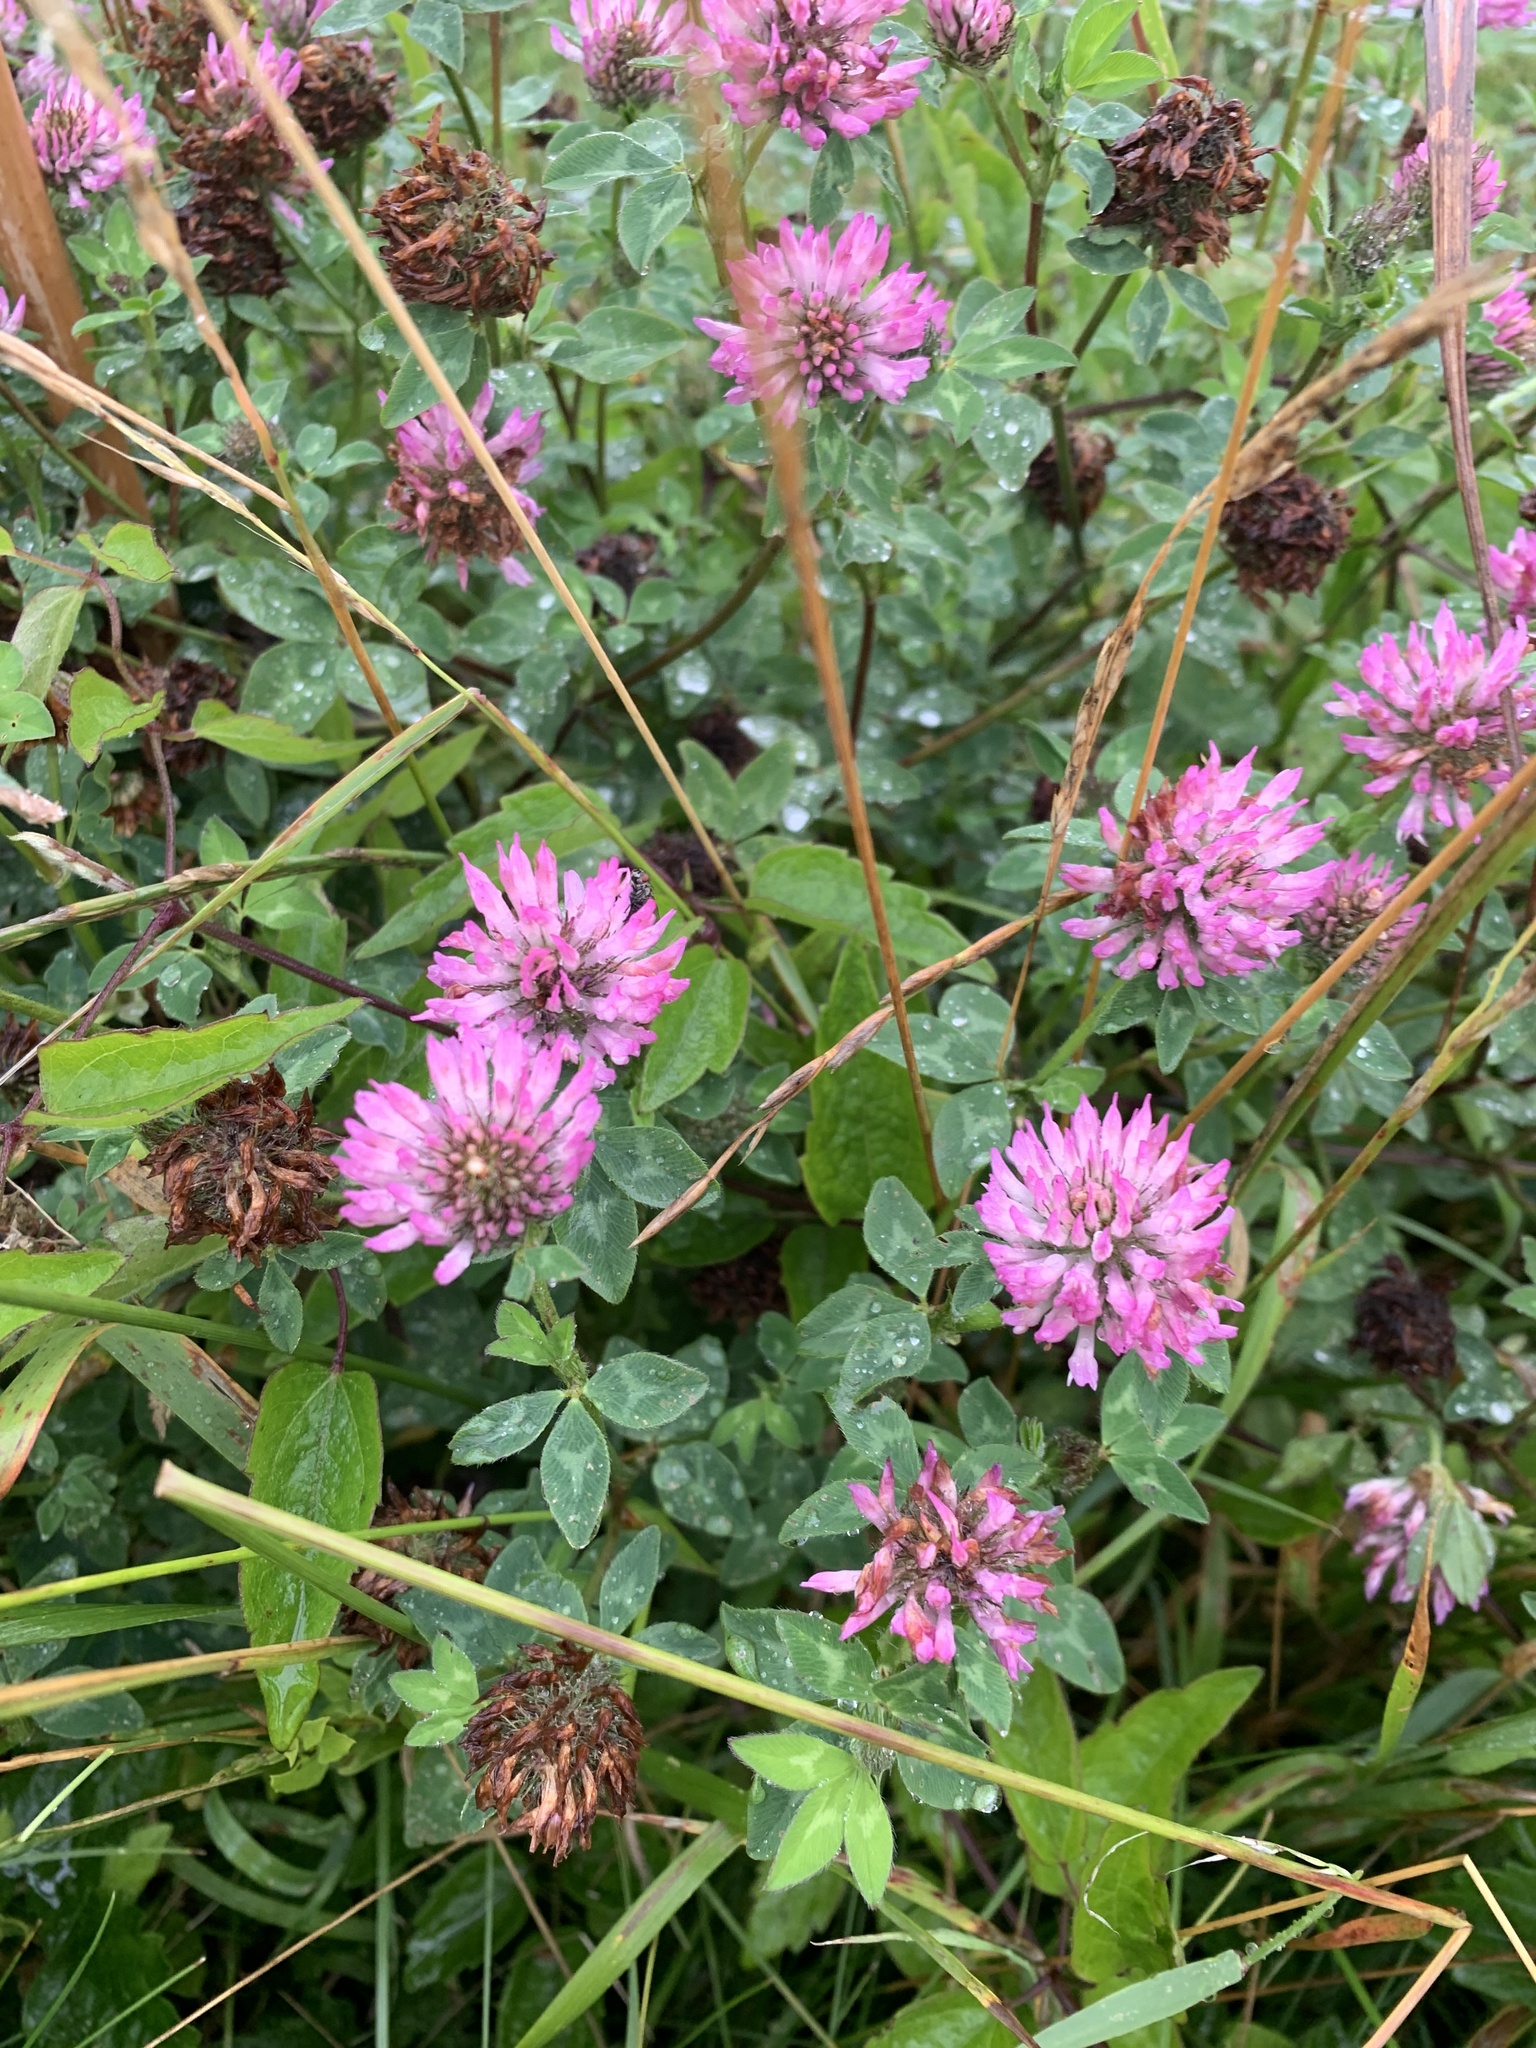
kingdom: Plantae
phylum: Tracheophyta
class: Magnoliopsida
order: Fabales
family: Fabaceae
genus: Trifolium
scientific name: Trifolium pratense
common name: Red clover
